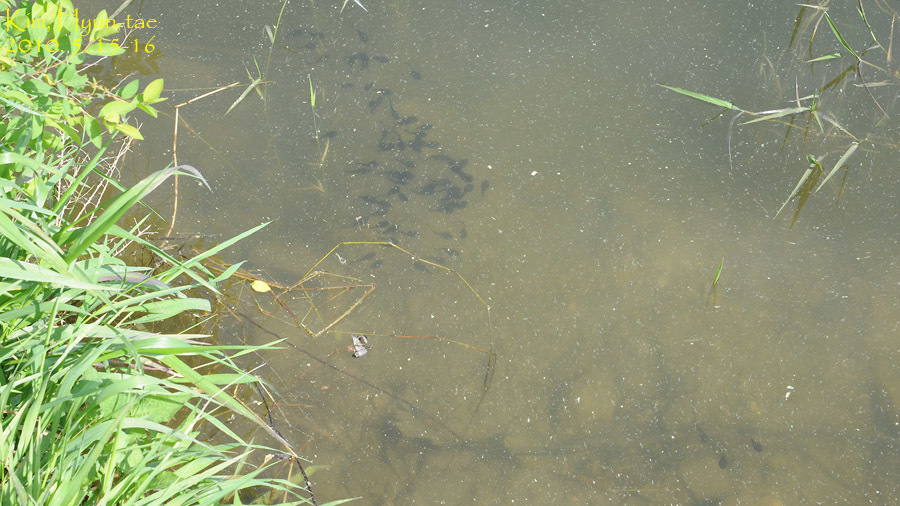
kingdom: Animalia
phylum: Chordata
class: Amphibia
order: Anura
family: Bufonidae
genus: Bufo
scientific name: Bufo gargarizans
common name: Asiatic toad
